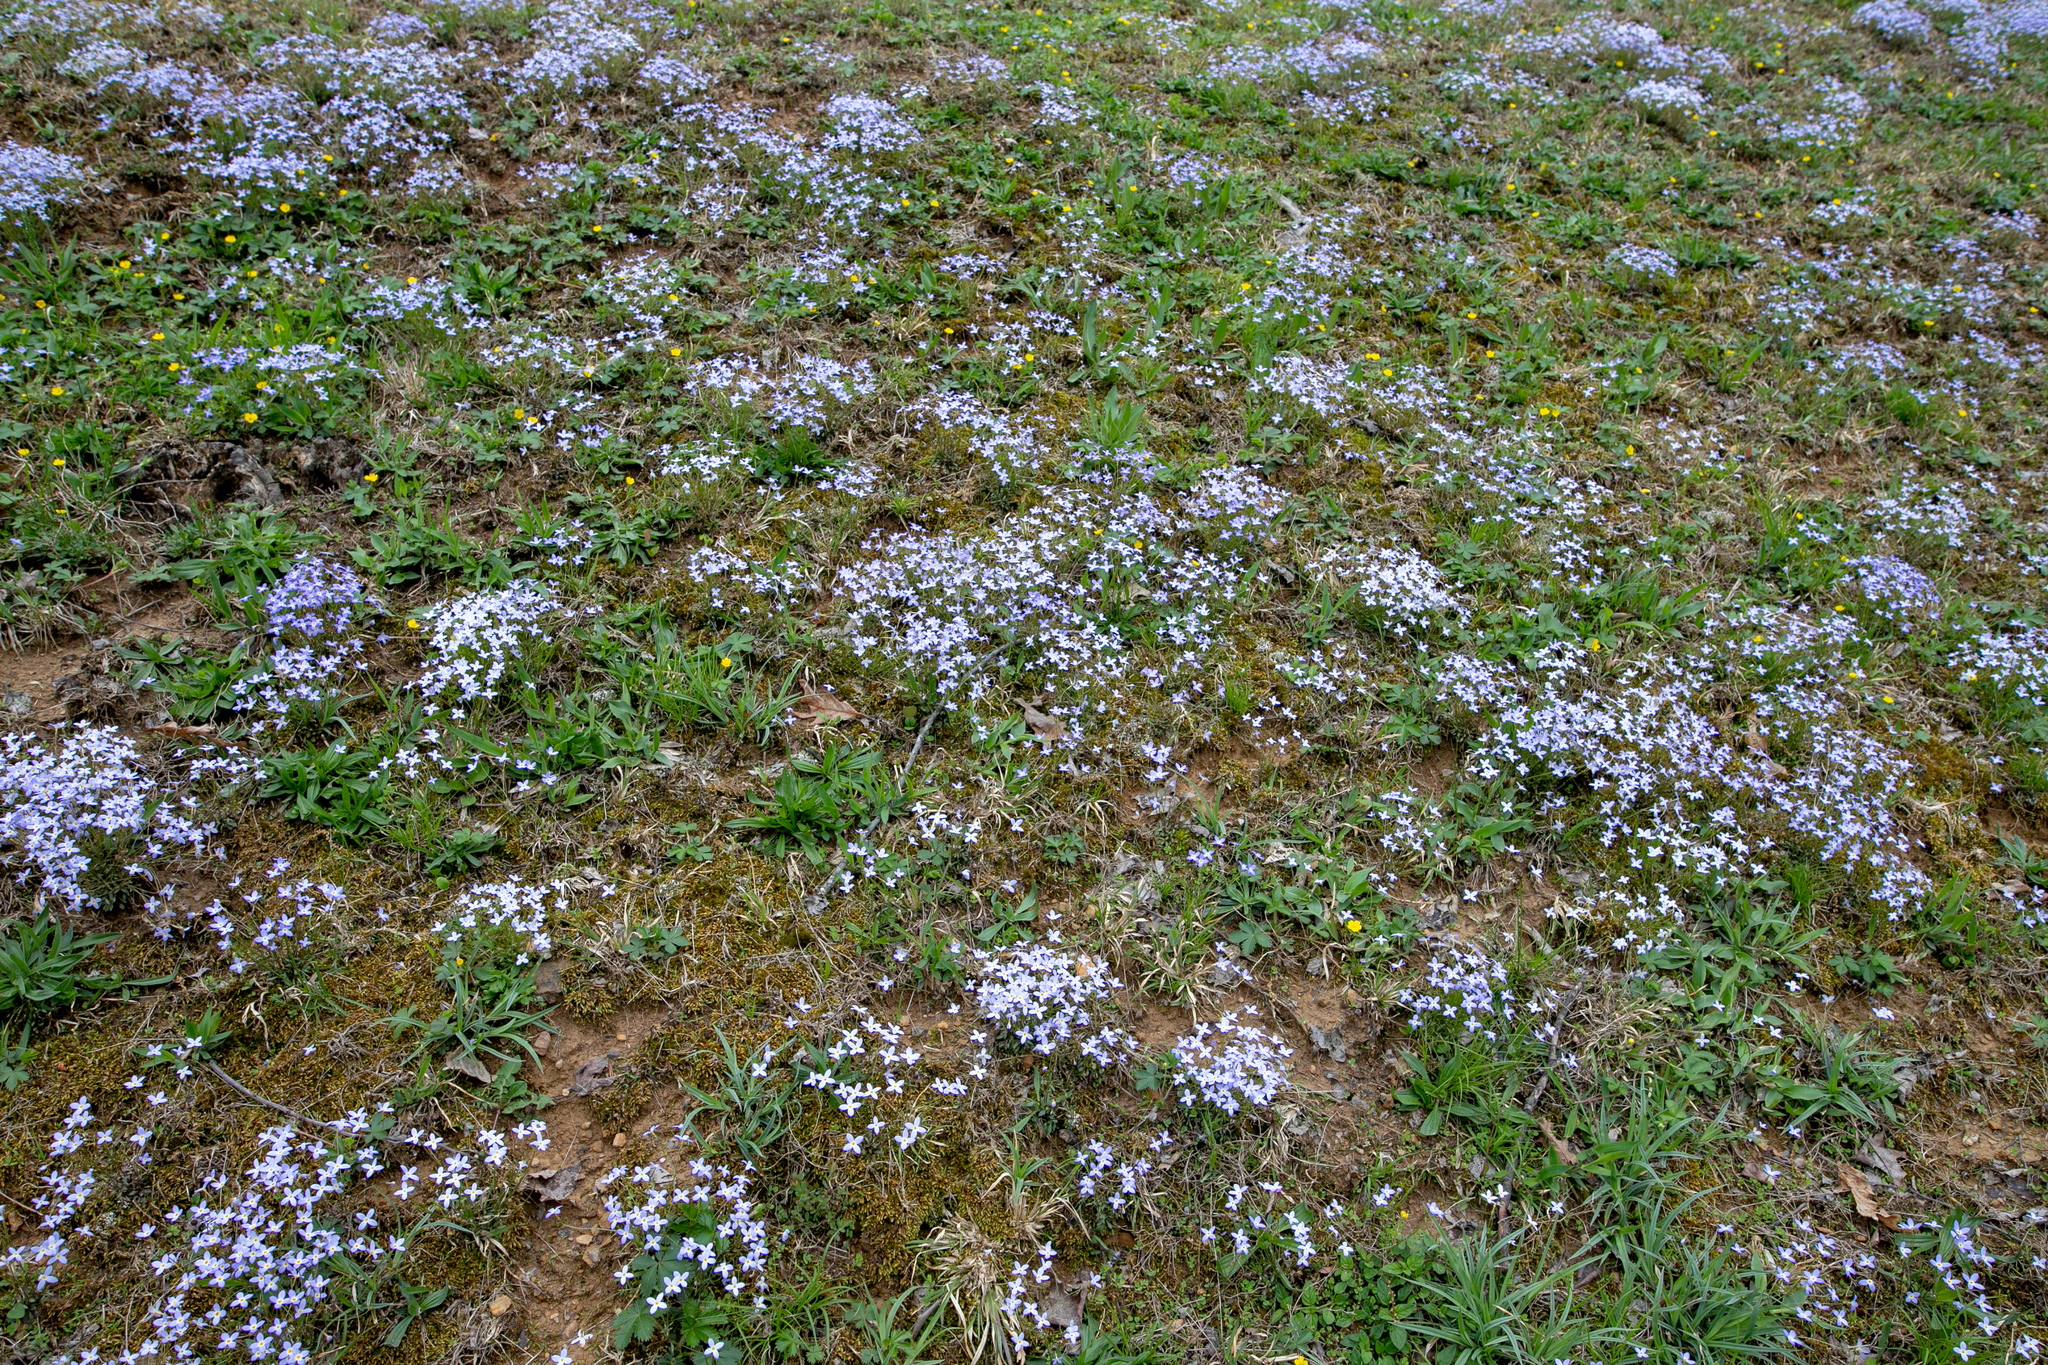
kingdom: Plantae
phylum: Tracheophyta
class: Magnoliopsida
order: Gentianales
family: Rubiaceae
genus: Houstonia
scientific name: Houstonia caerulea
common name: Bluets
